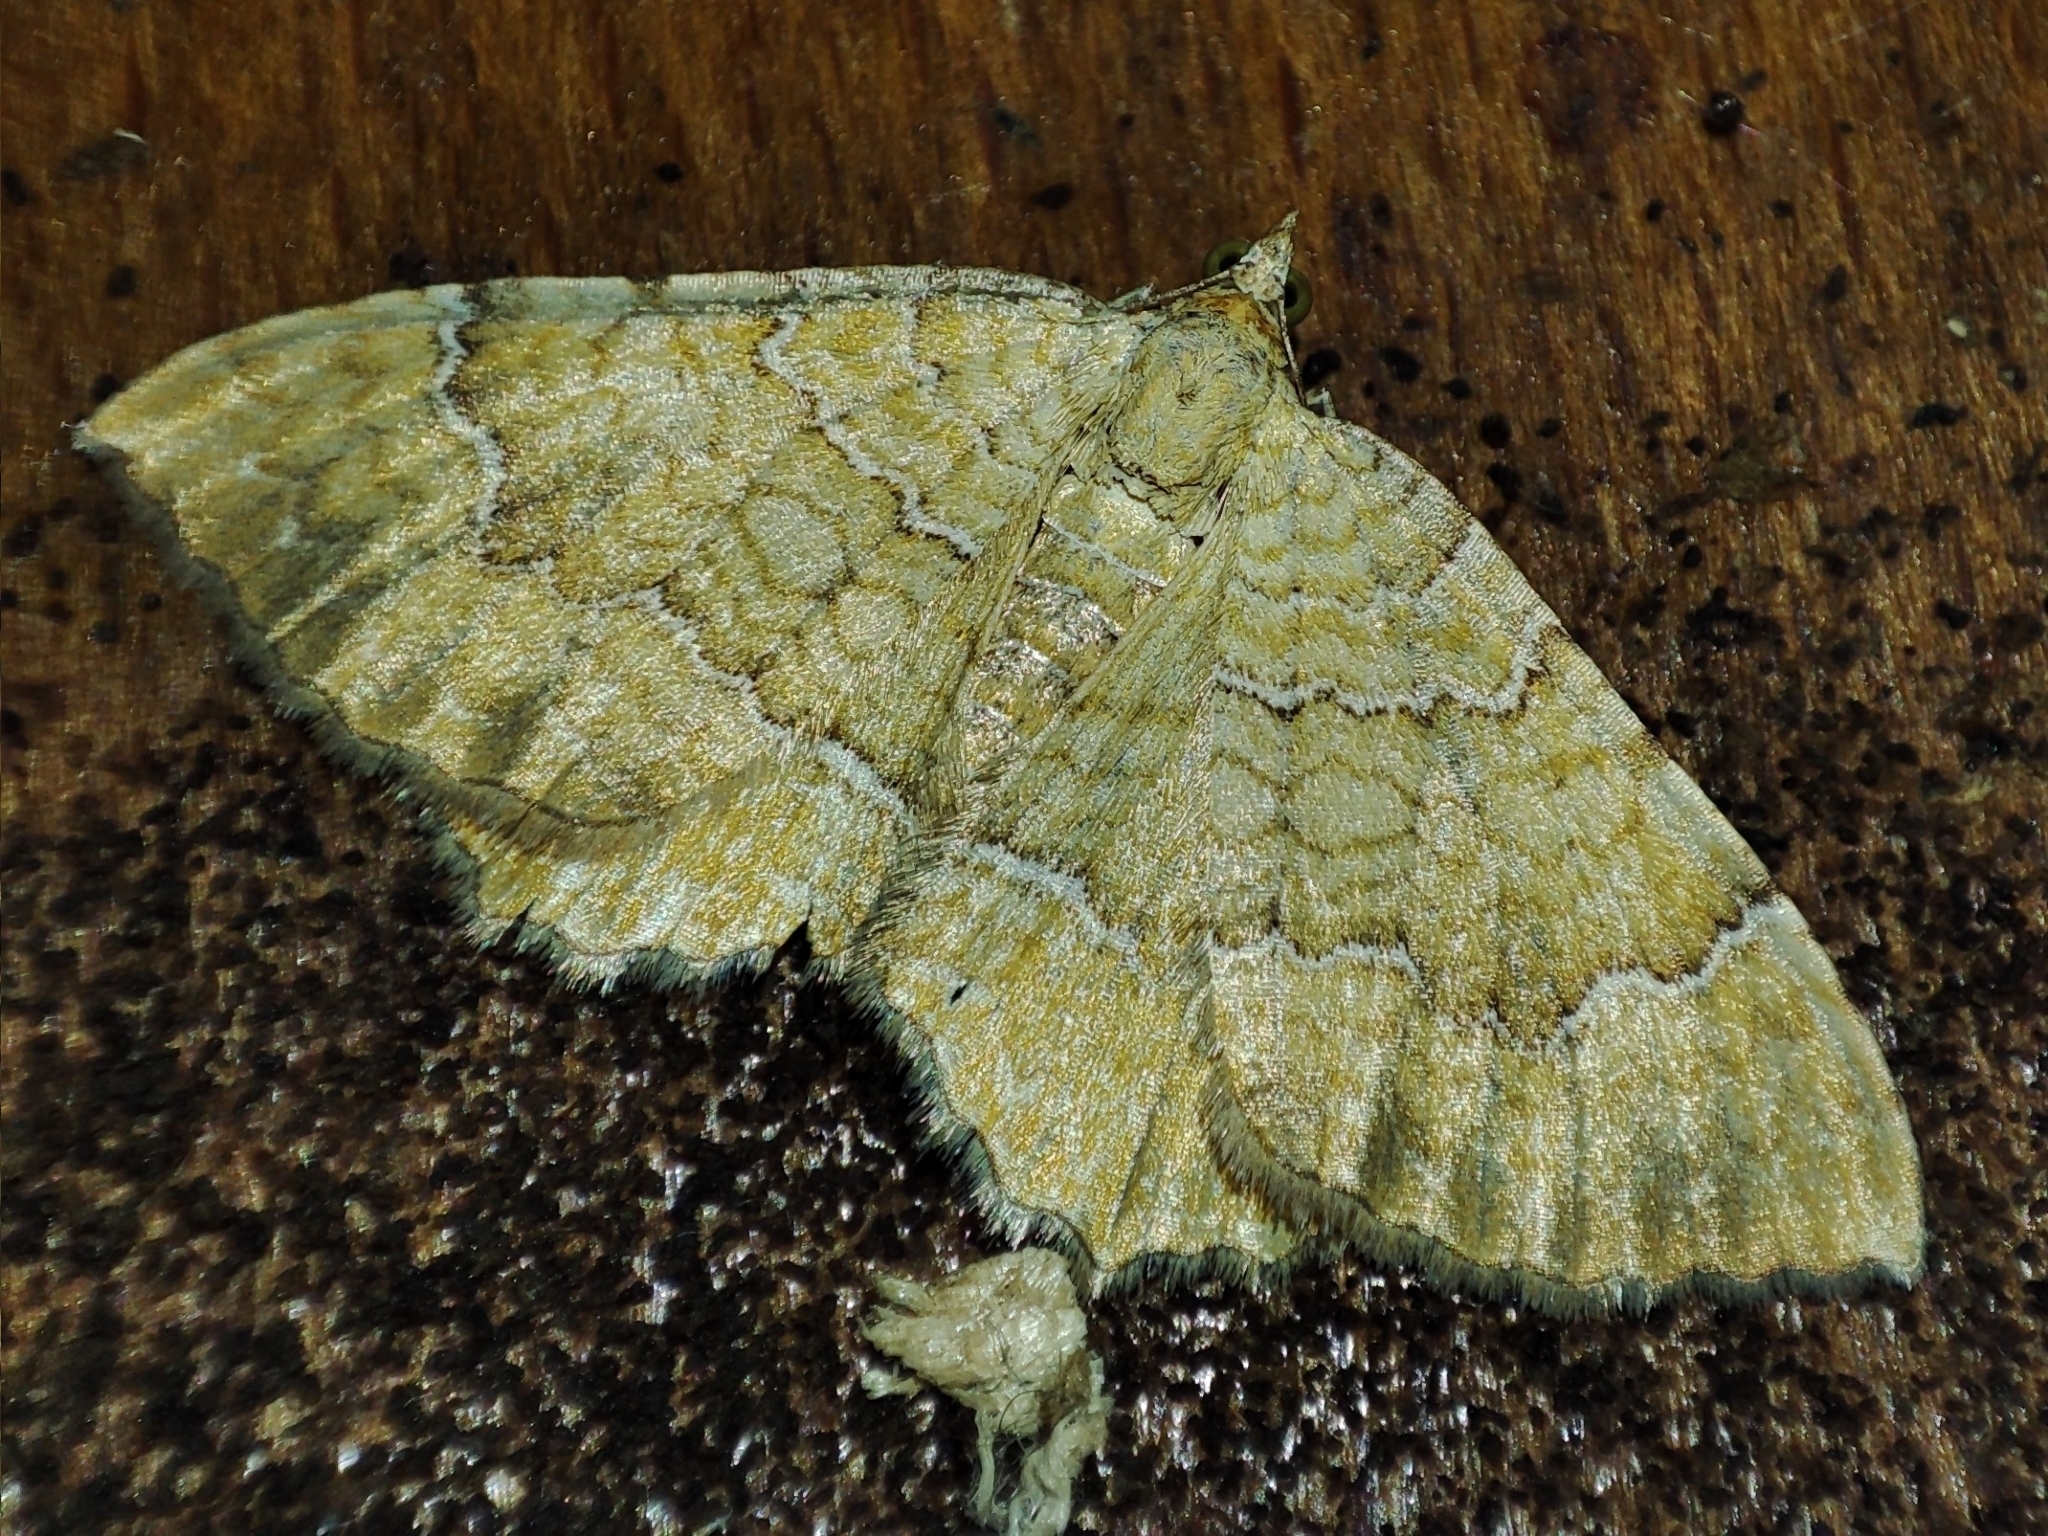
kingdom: Animalia
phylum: Arthropoda
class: Insecta
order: Lepidoptera
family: Geometridae
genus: Camptogramma
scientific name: Camptogramma bilineata
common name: Yellow shell
